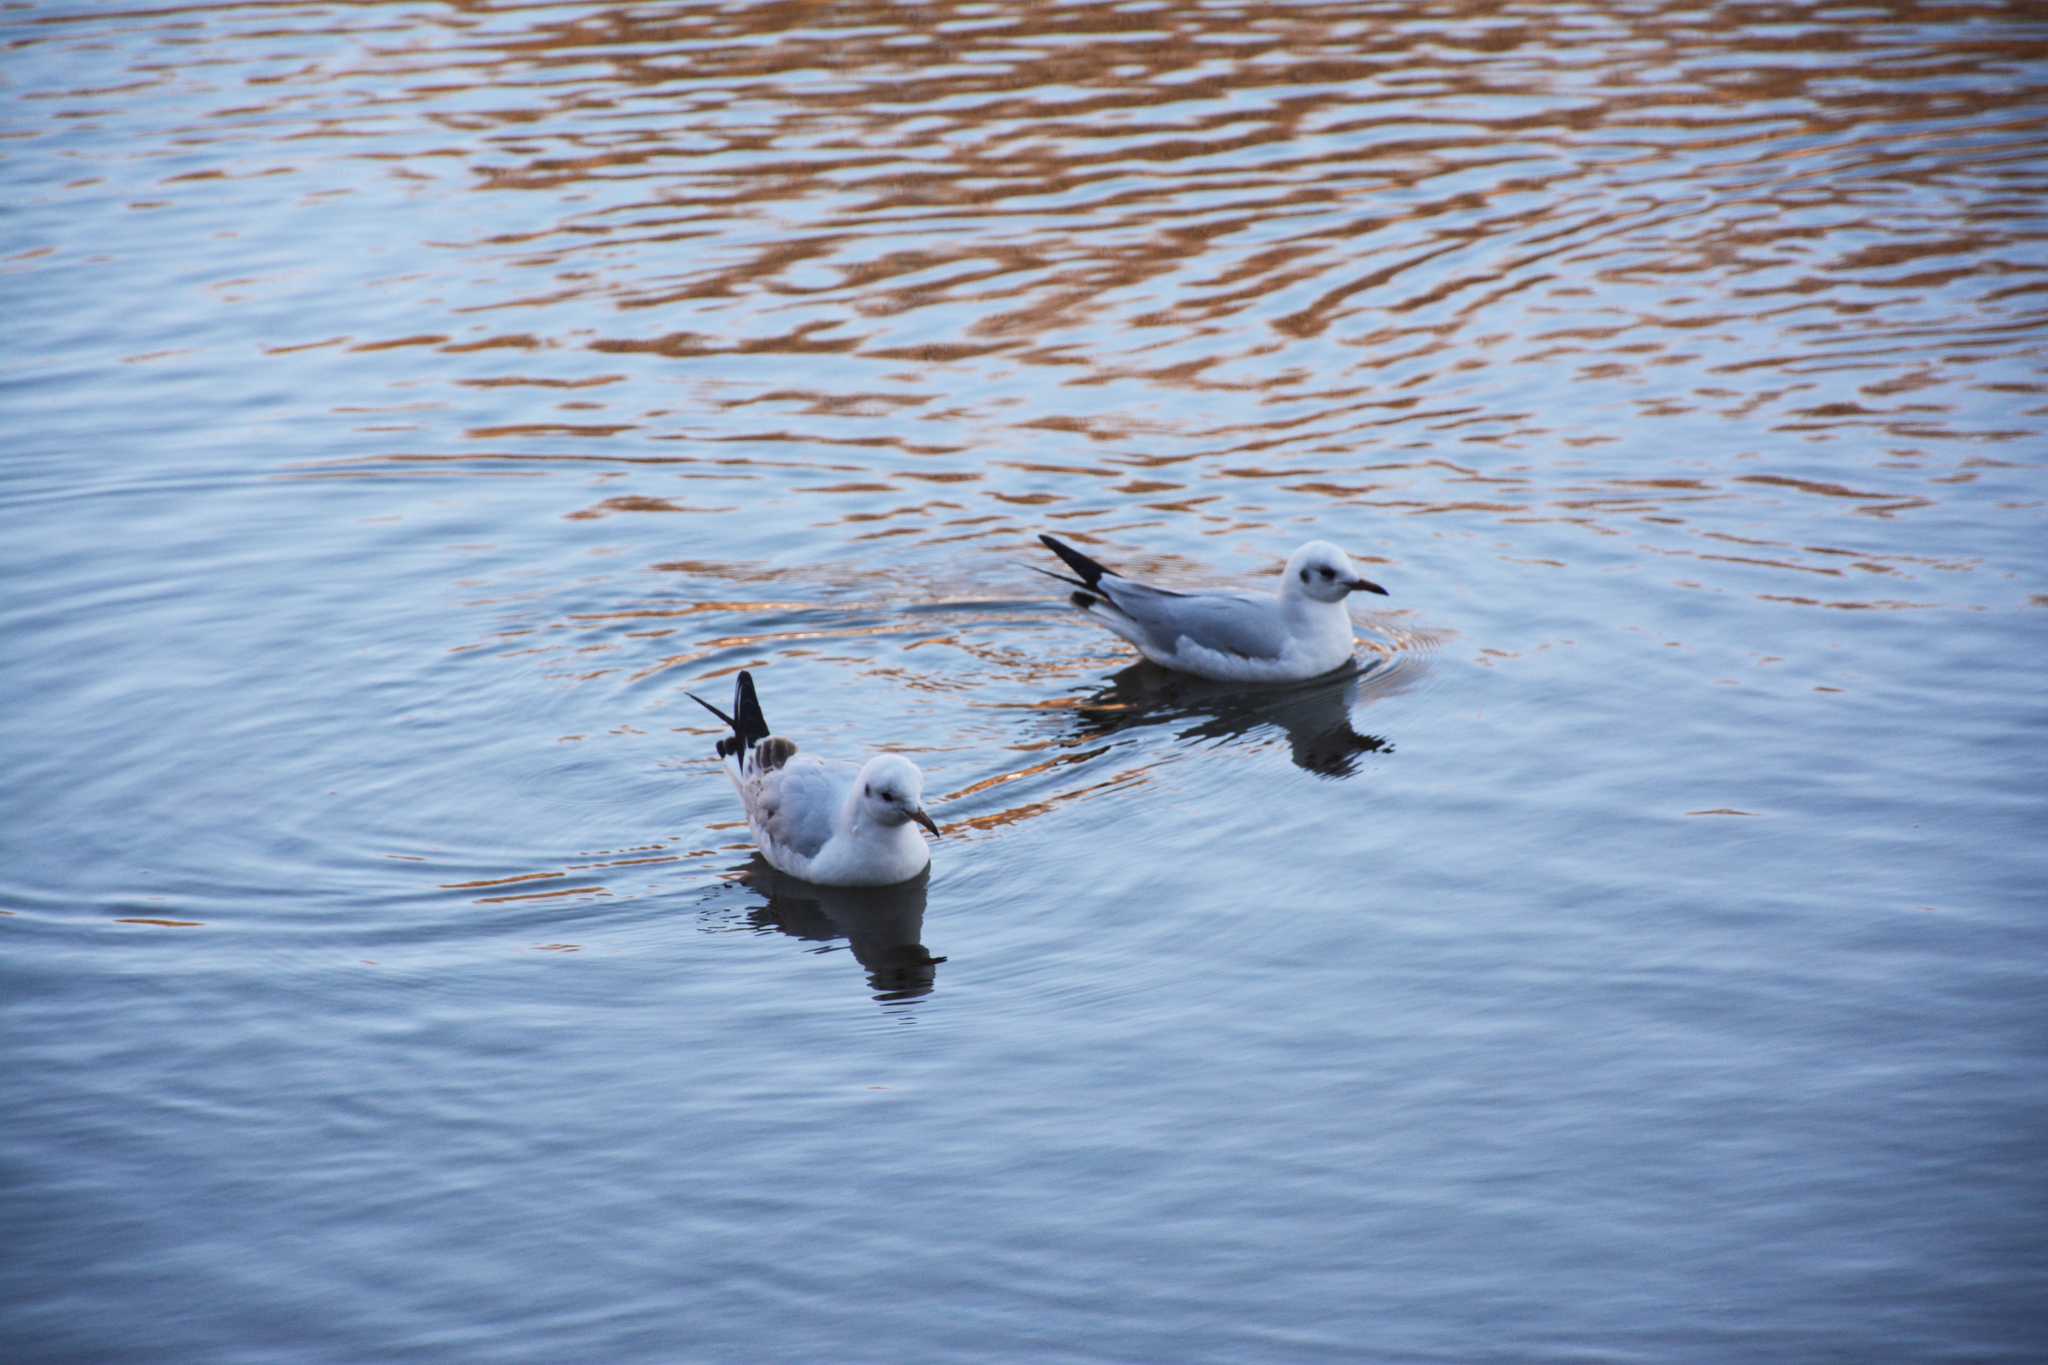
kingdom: Animalia
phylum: Chordata
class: Aves
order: Charadriiformes
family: Laridae
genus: Chroicocephalus
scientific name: Chroicocephalus ridibundus
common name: Black-headed gull
